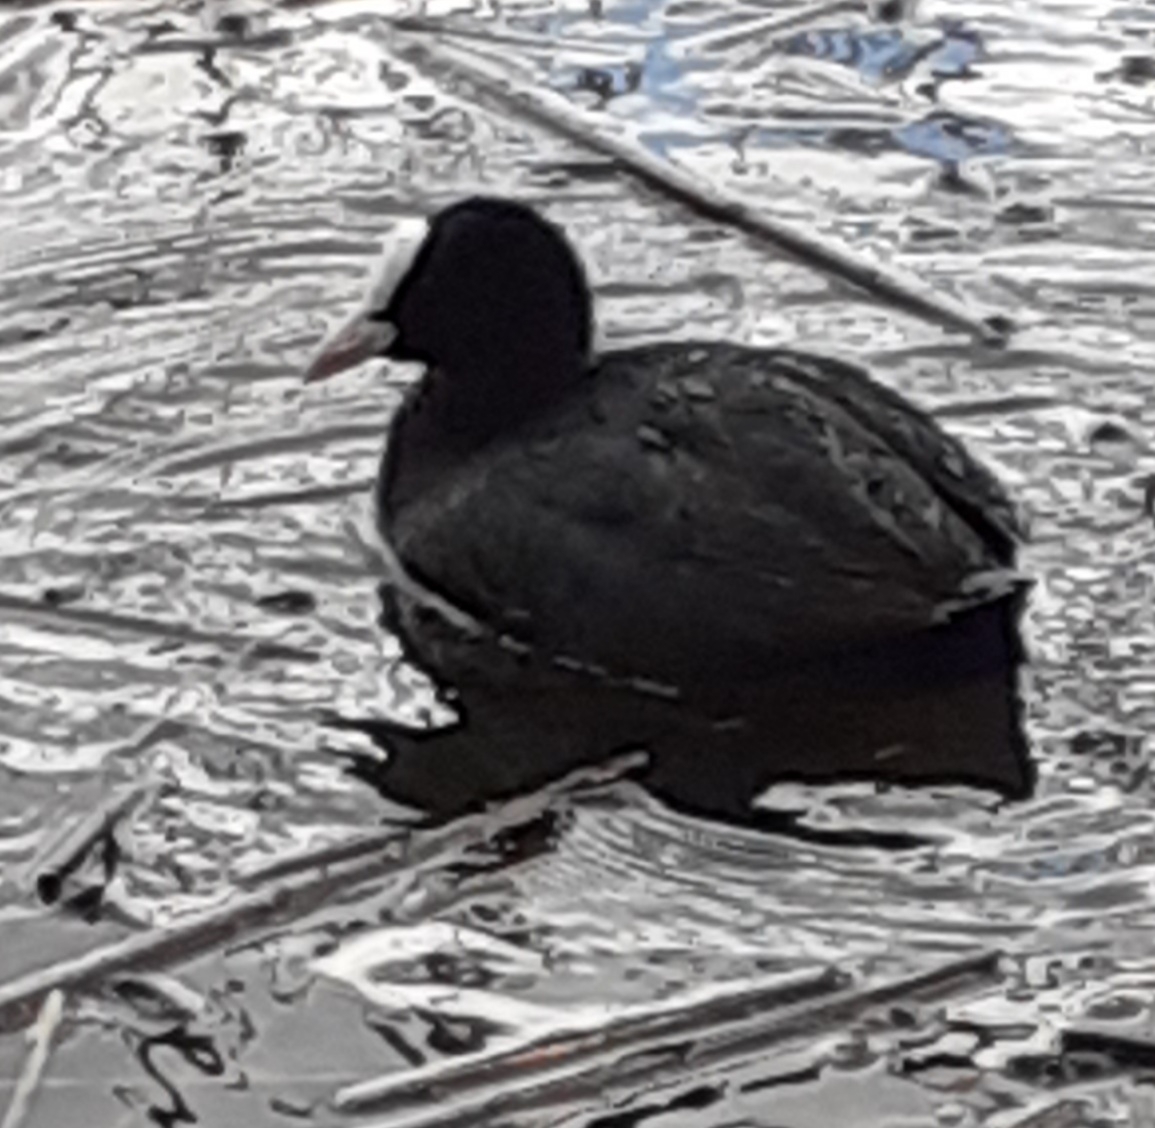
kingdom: Animalia
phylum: Chordata
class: Aves
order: Gruiformes
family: Rallidae
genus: Fulica
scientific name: Fulica atra
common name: Eurasian coot
